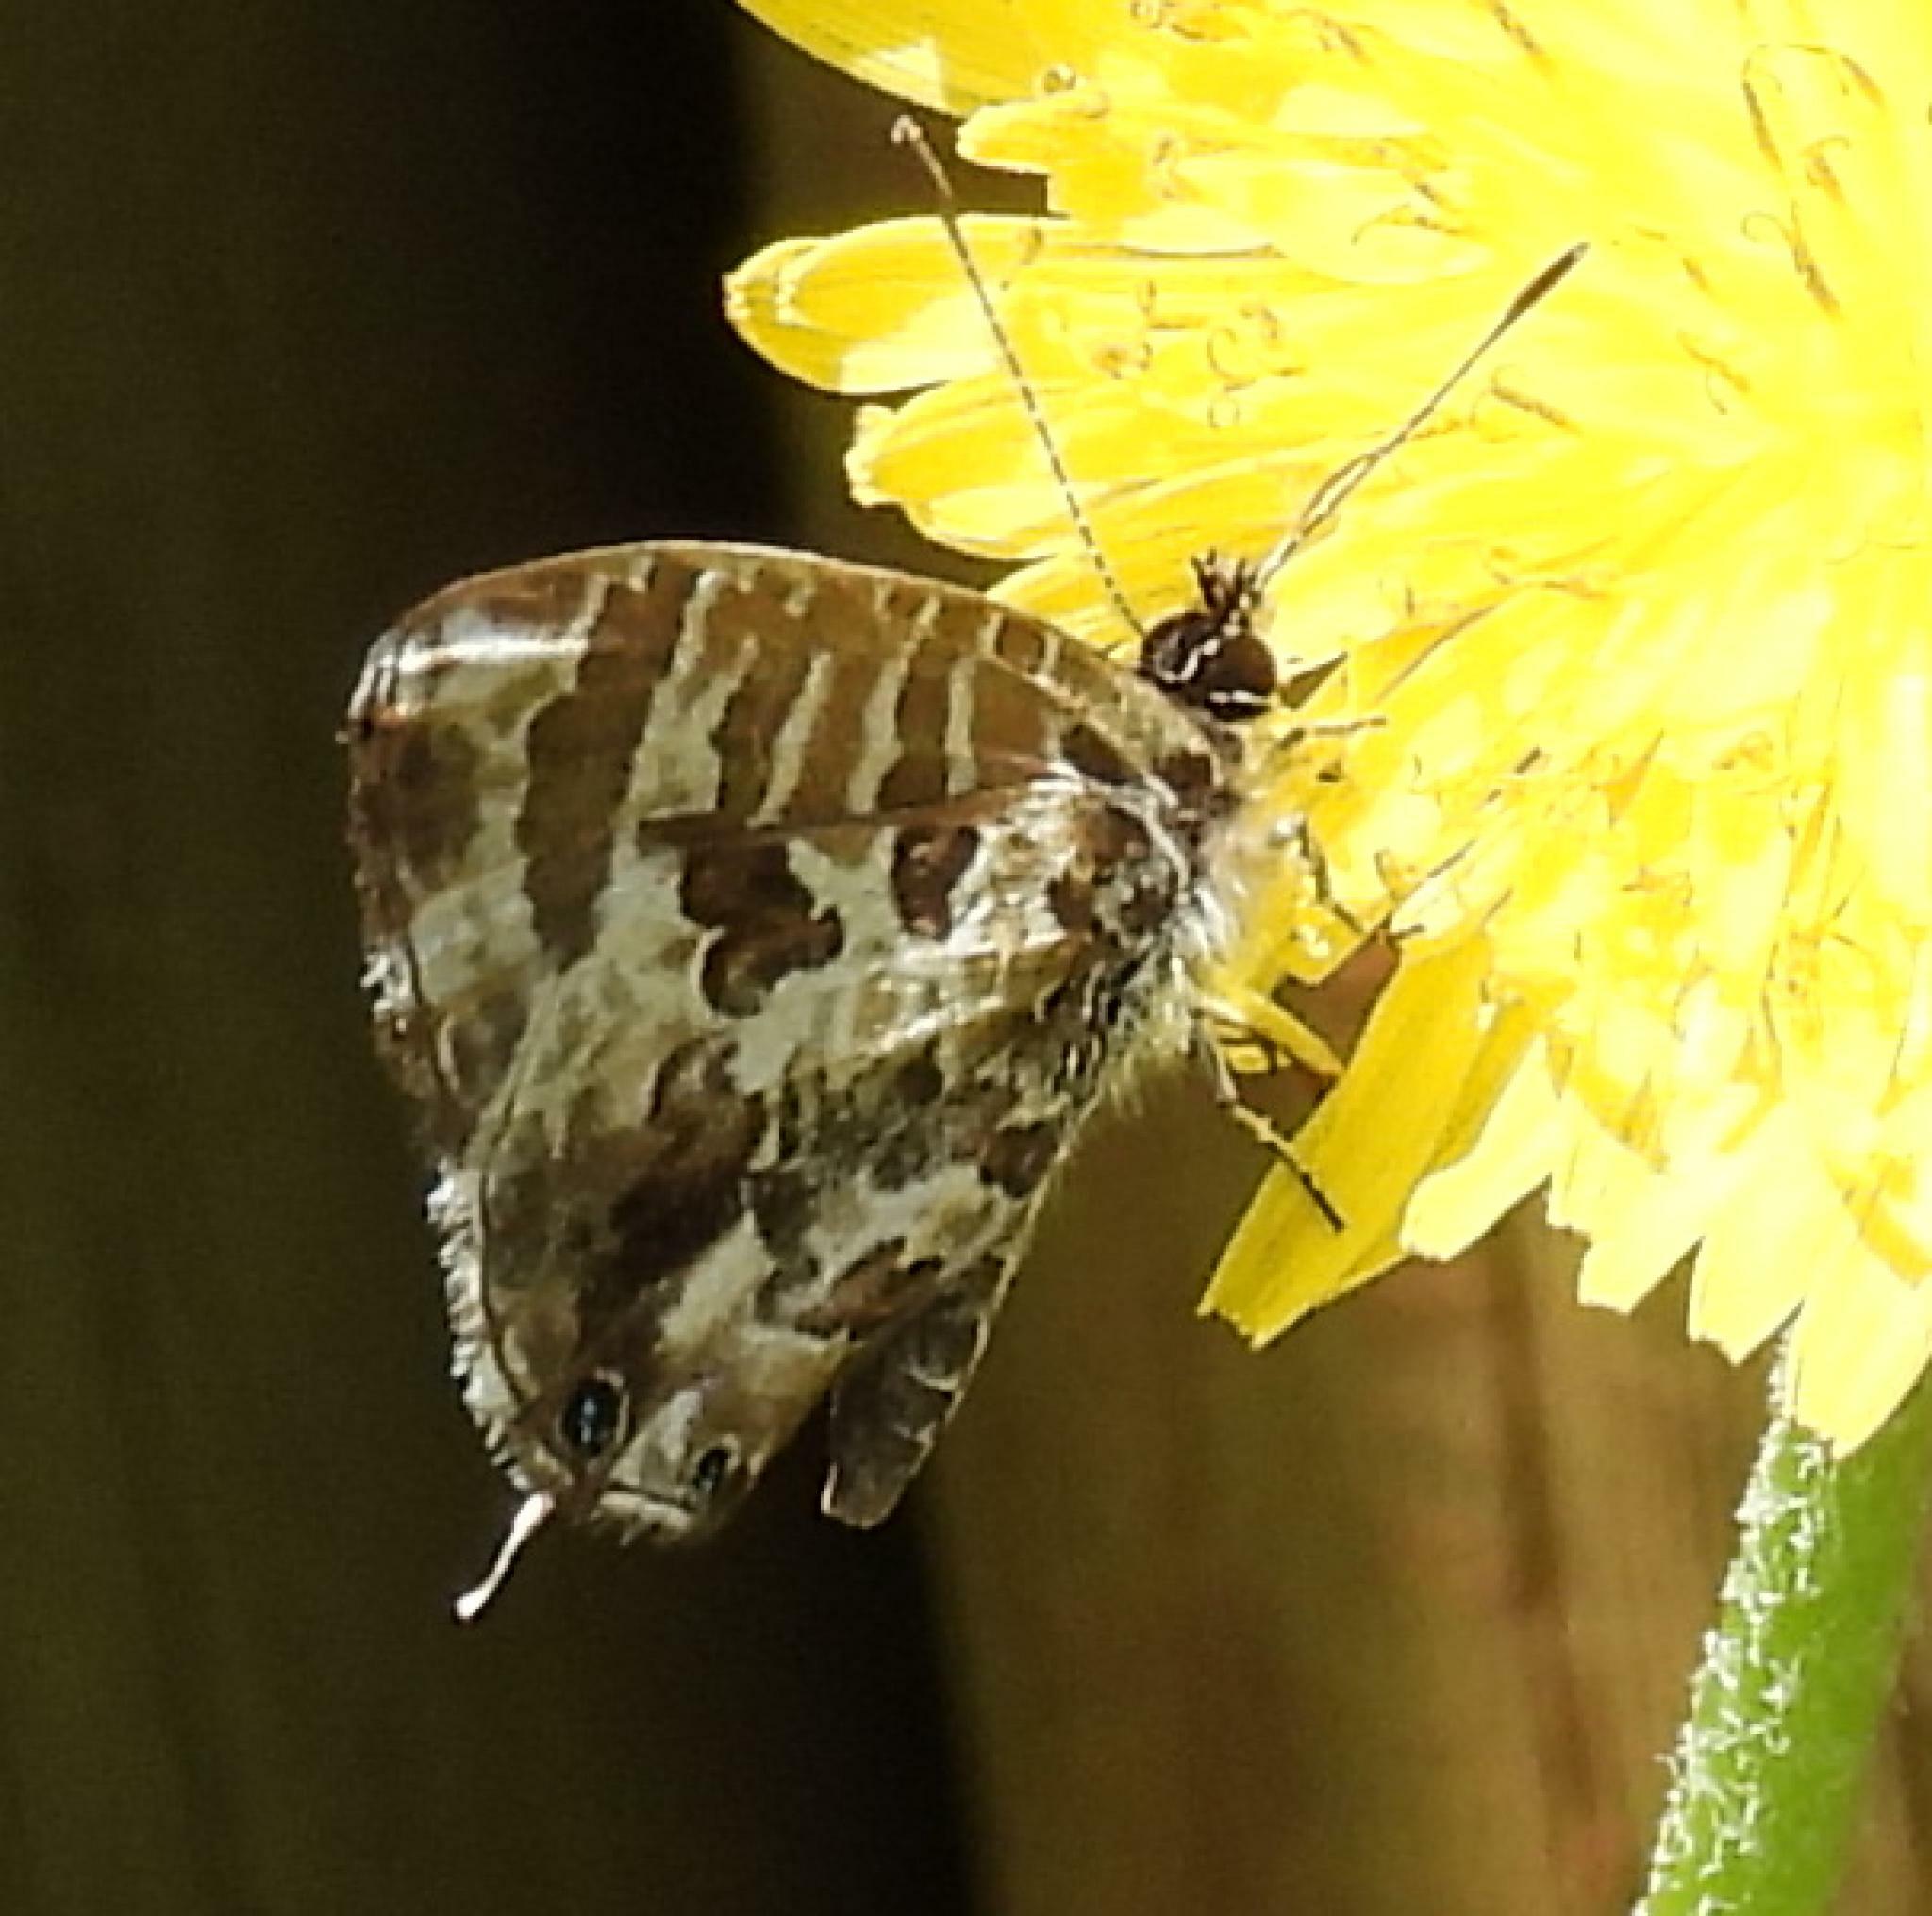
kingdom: Animalia
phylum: Arthropoda
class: Insecta
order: Lepidoptera
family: Lycaenidae
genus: Cacyreus
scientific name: Cacyreus lingeus
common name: Bush bronze
